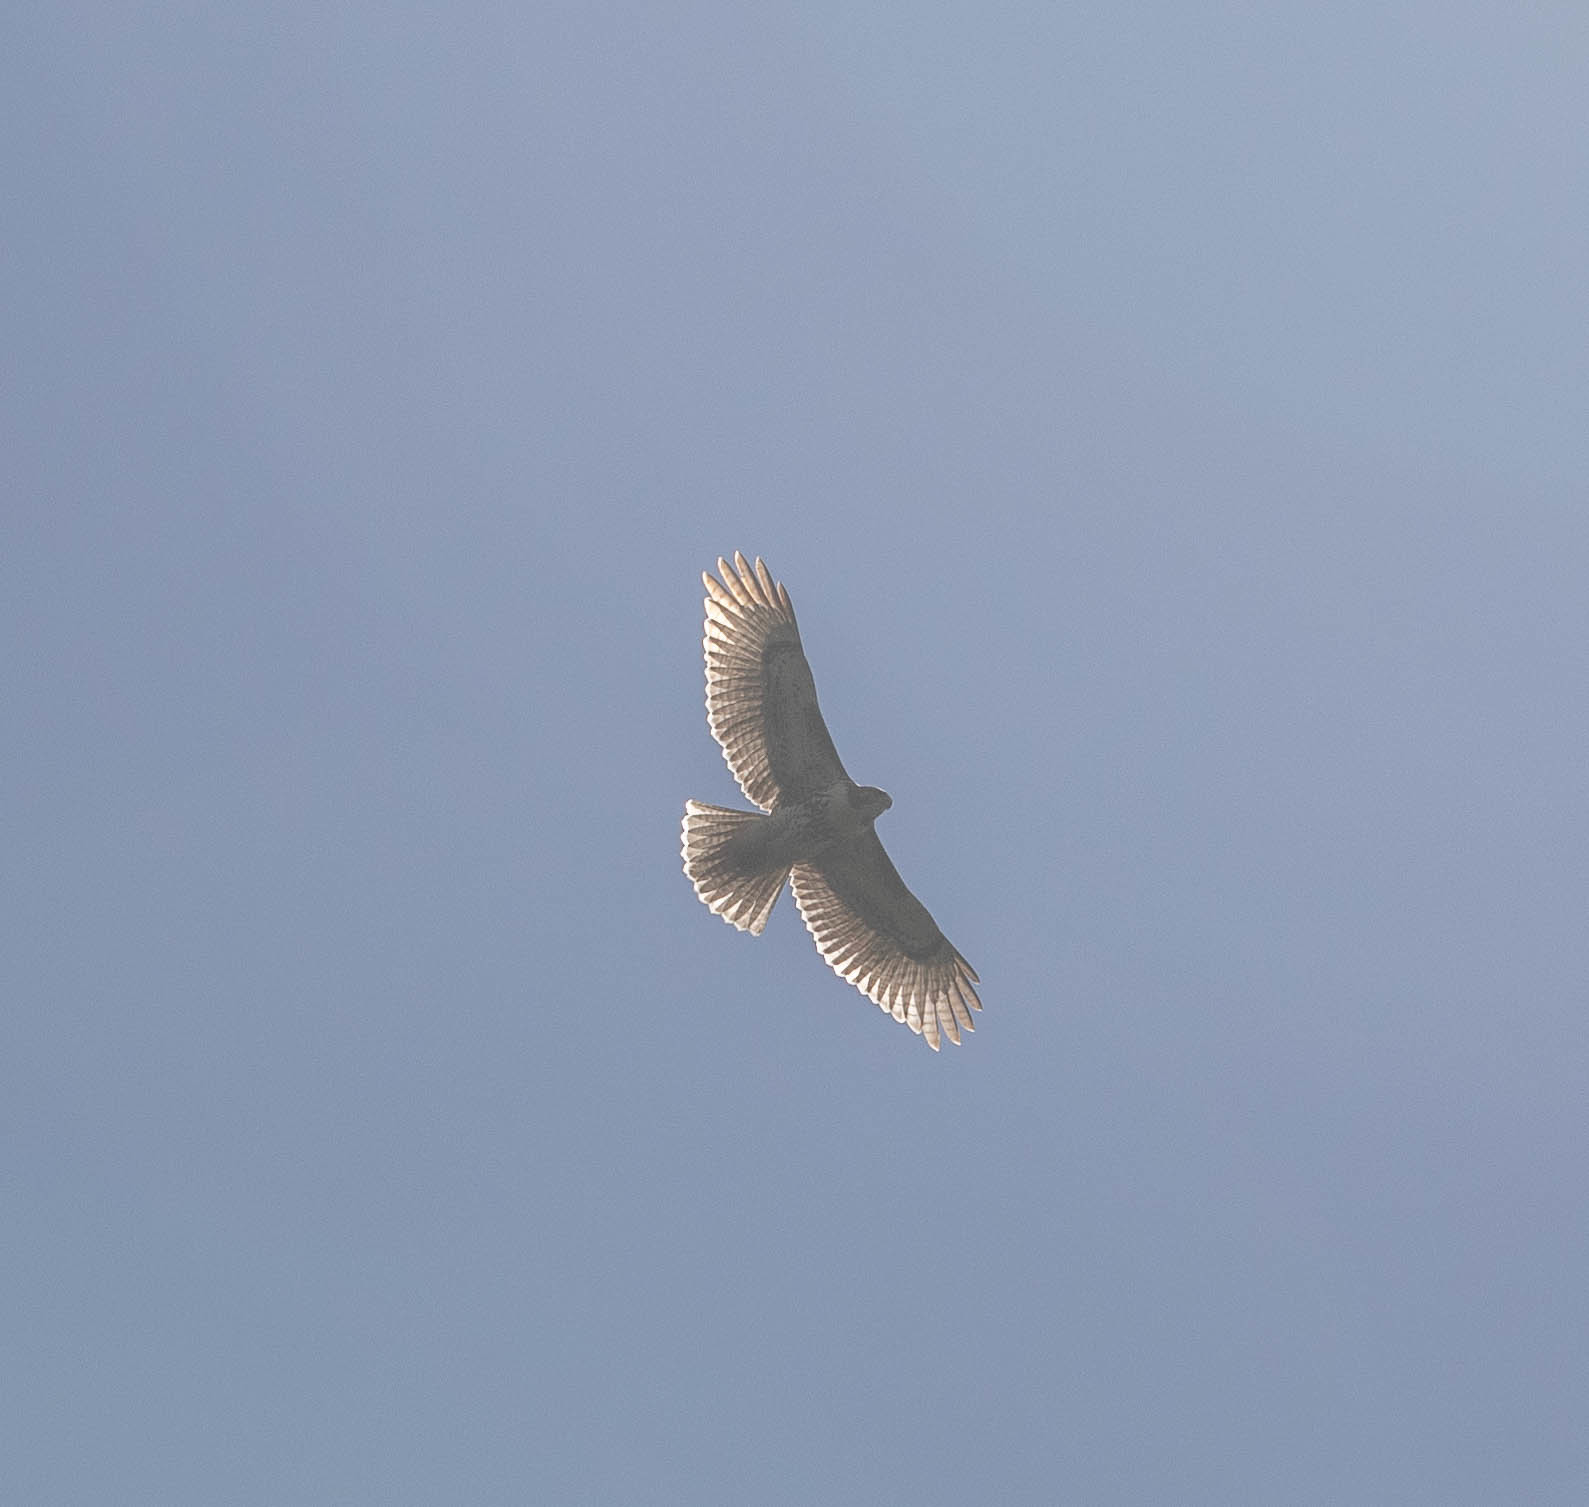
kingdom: Animalia
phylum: Chordata
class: Aves
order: Accipitriformes
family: Accipitridae
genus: Buteo
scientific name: Buteo jamaicensis
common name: Red-tailed hawk
